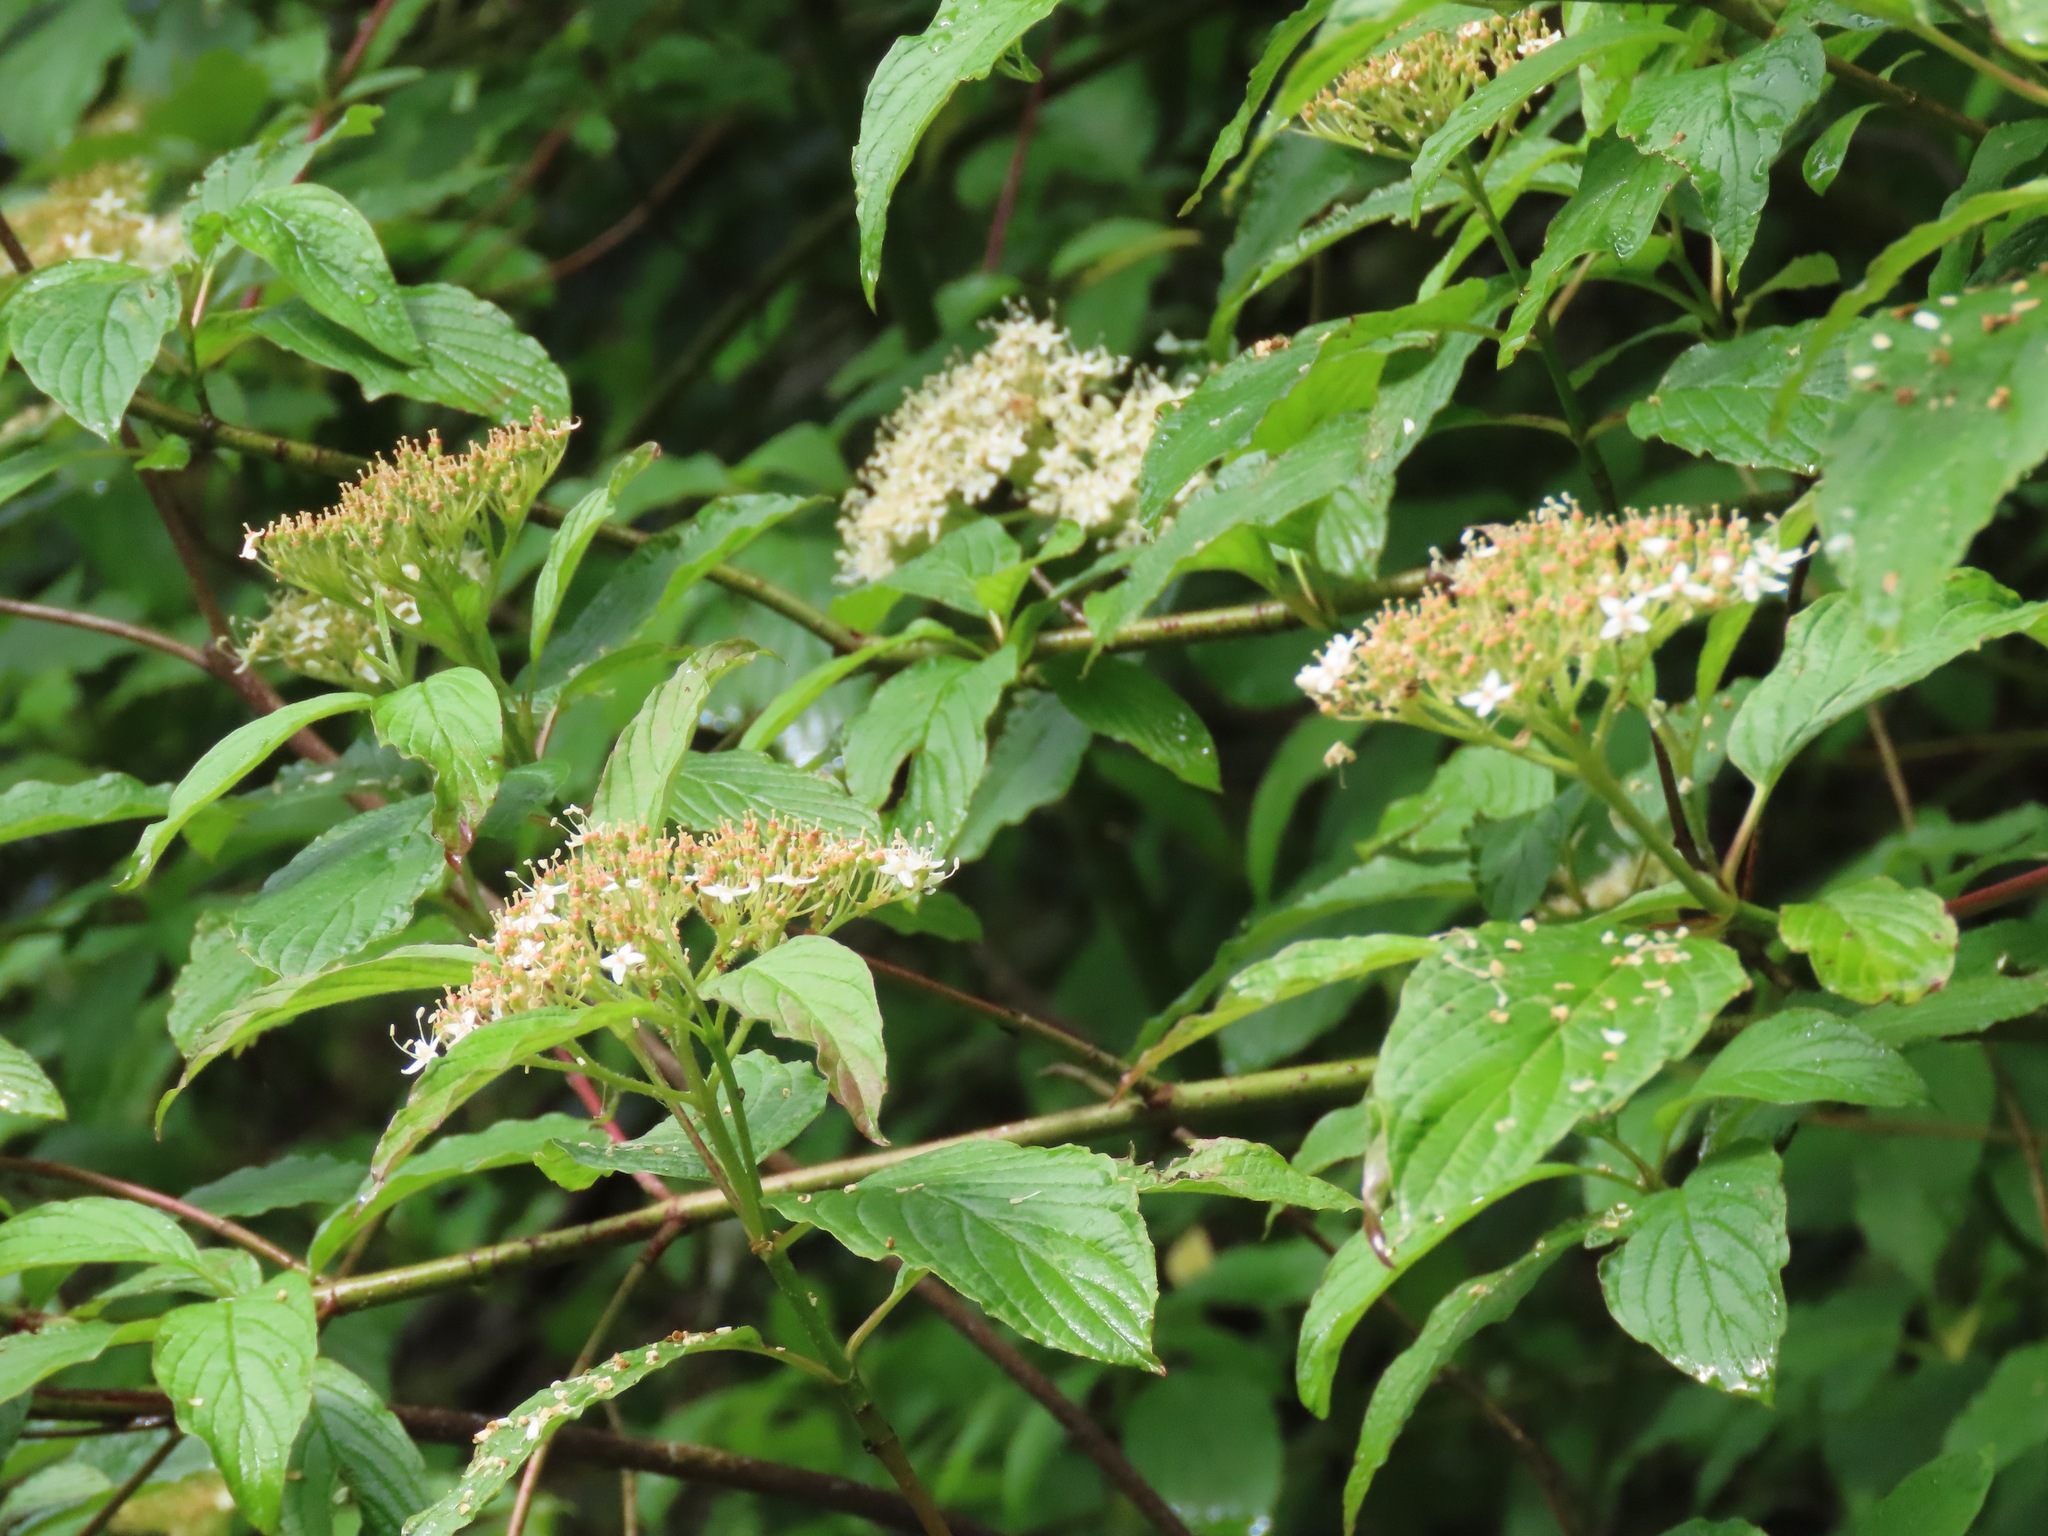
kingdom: Plantae
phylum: Tracheophyta
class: Magnoliopsida
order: Cornales
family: Cornaceae
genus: Cornus
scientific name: Cornus sericea
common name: Red-osier dogwood
